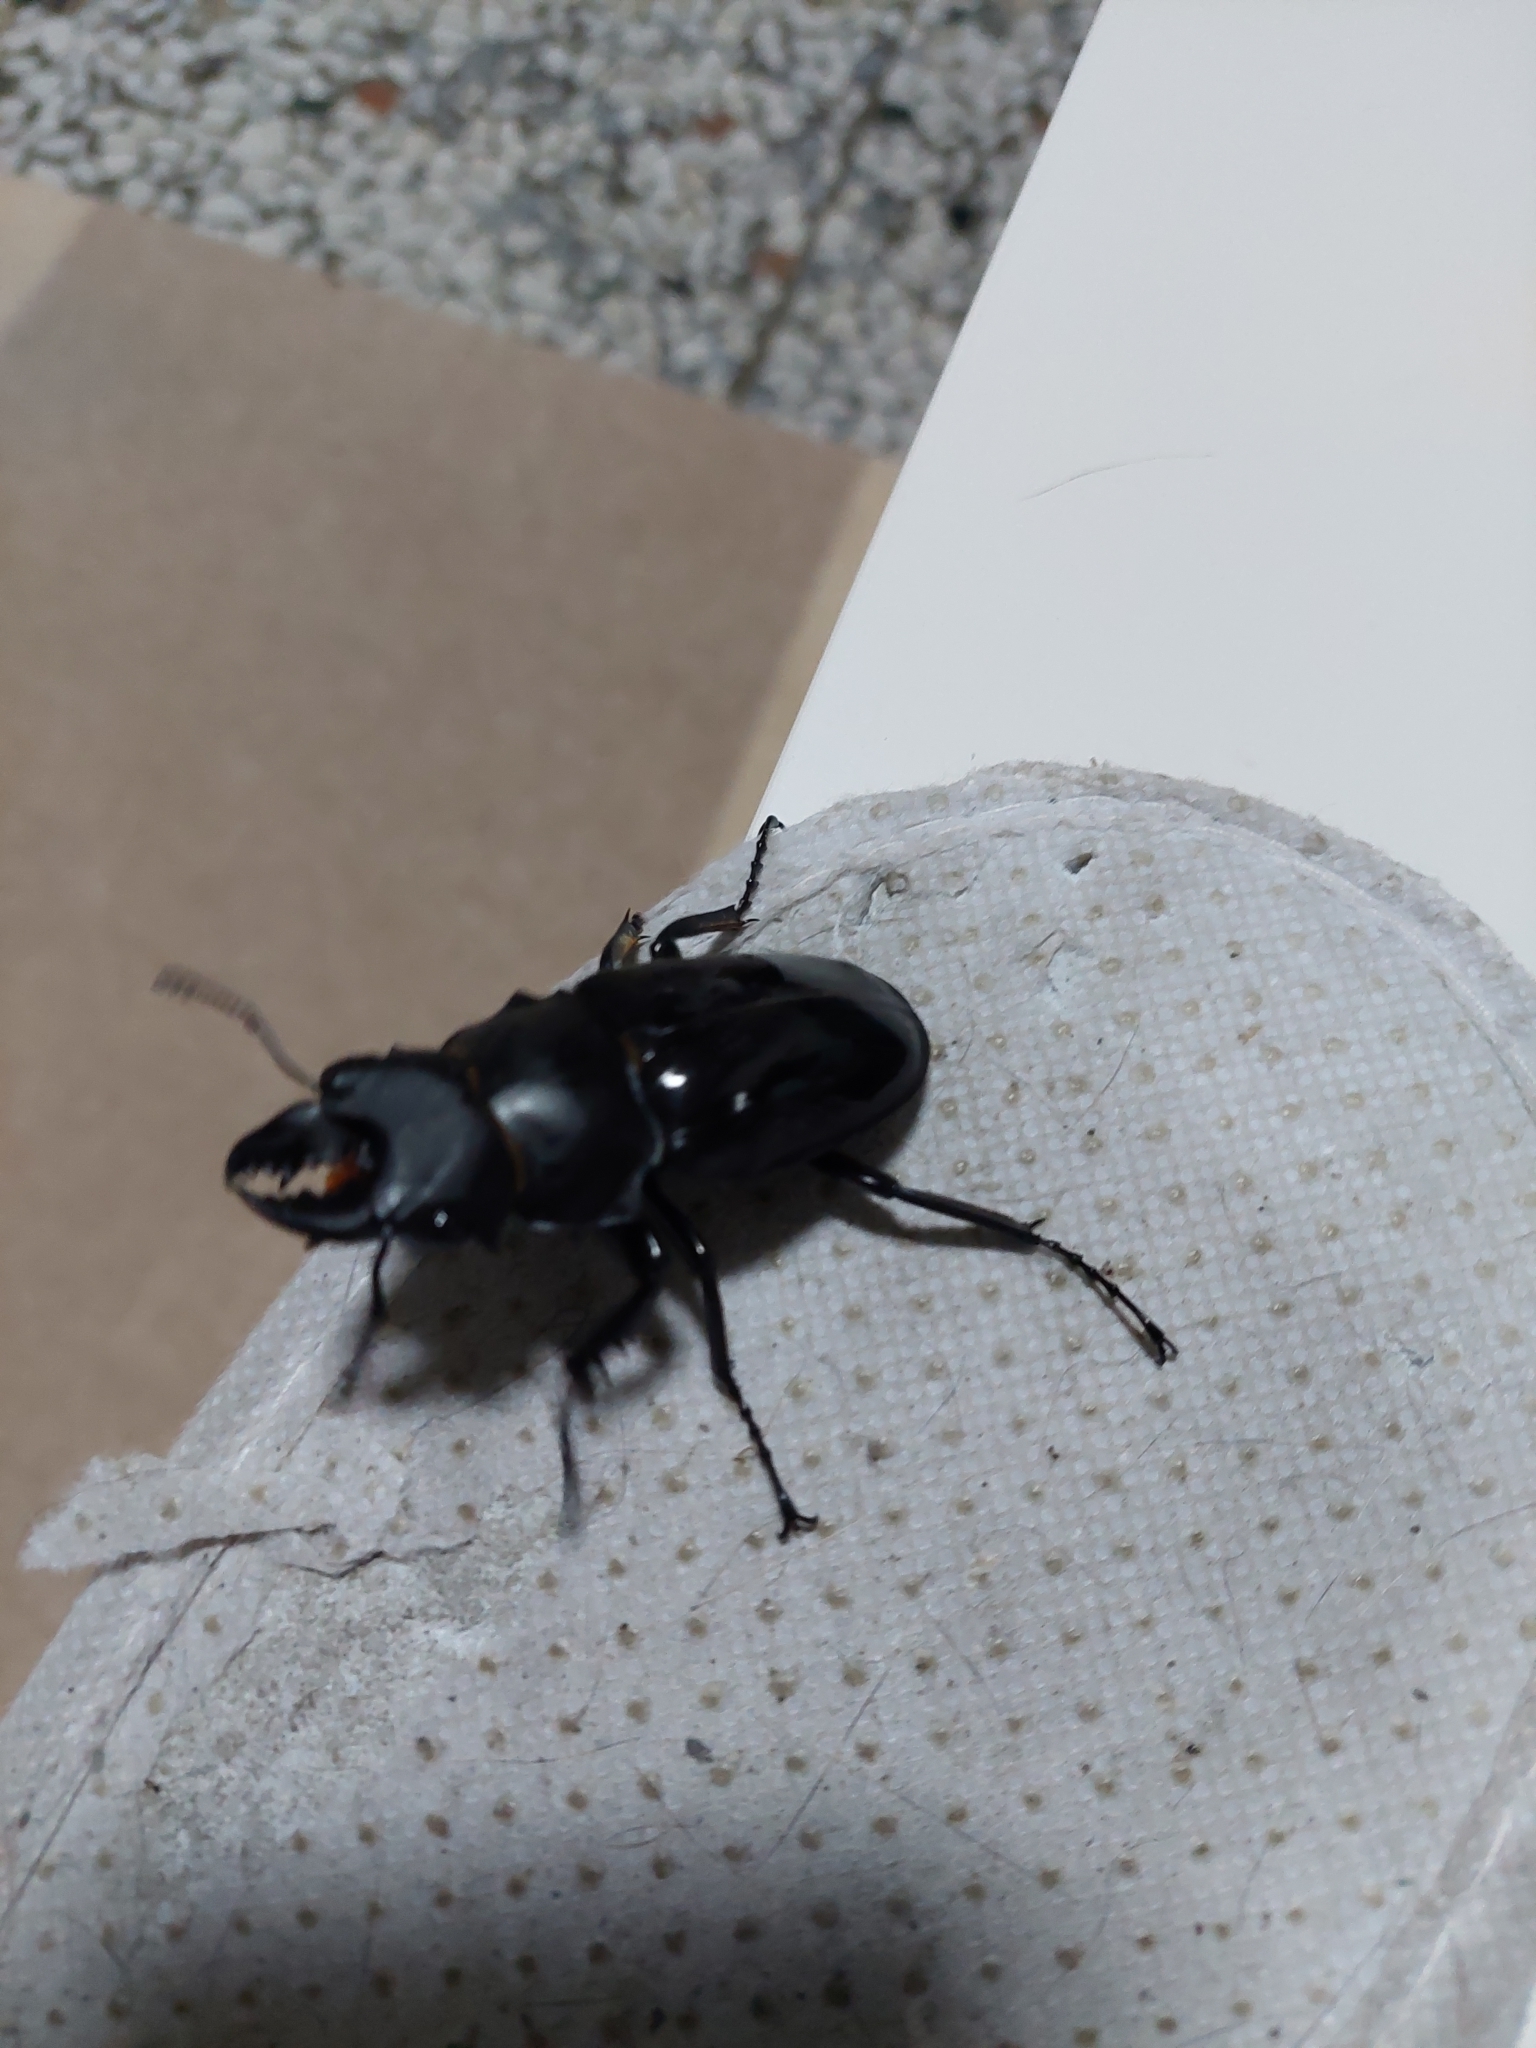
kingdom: Animalia
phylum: Arthropoda
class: Insecta
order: Coleoptera
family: Lucanidae
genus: Odontolabis
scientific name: Odontolabis siva
